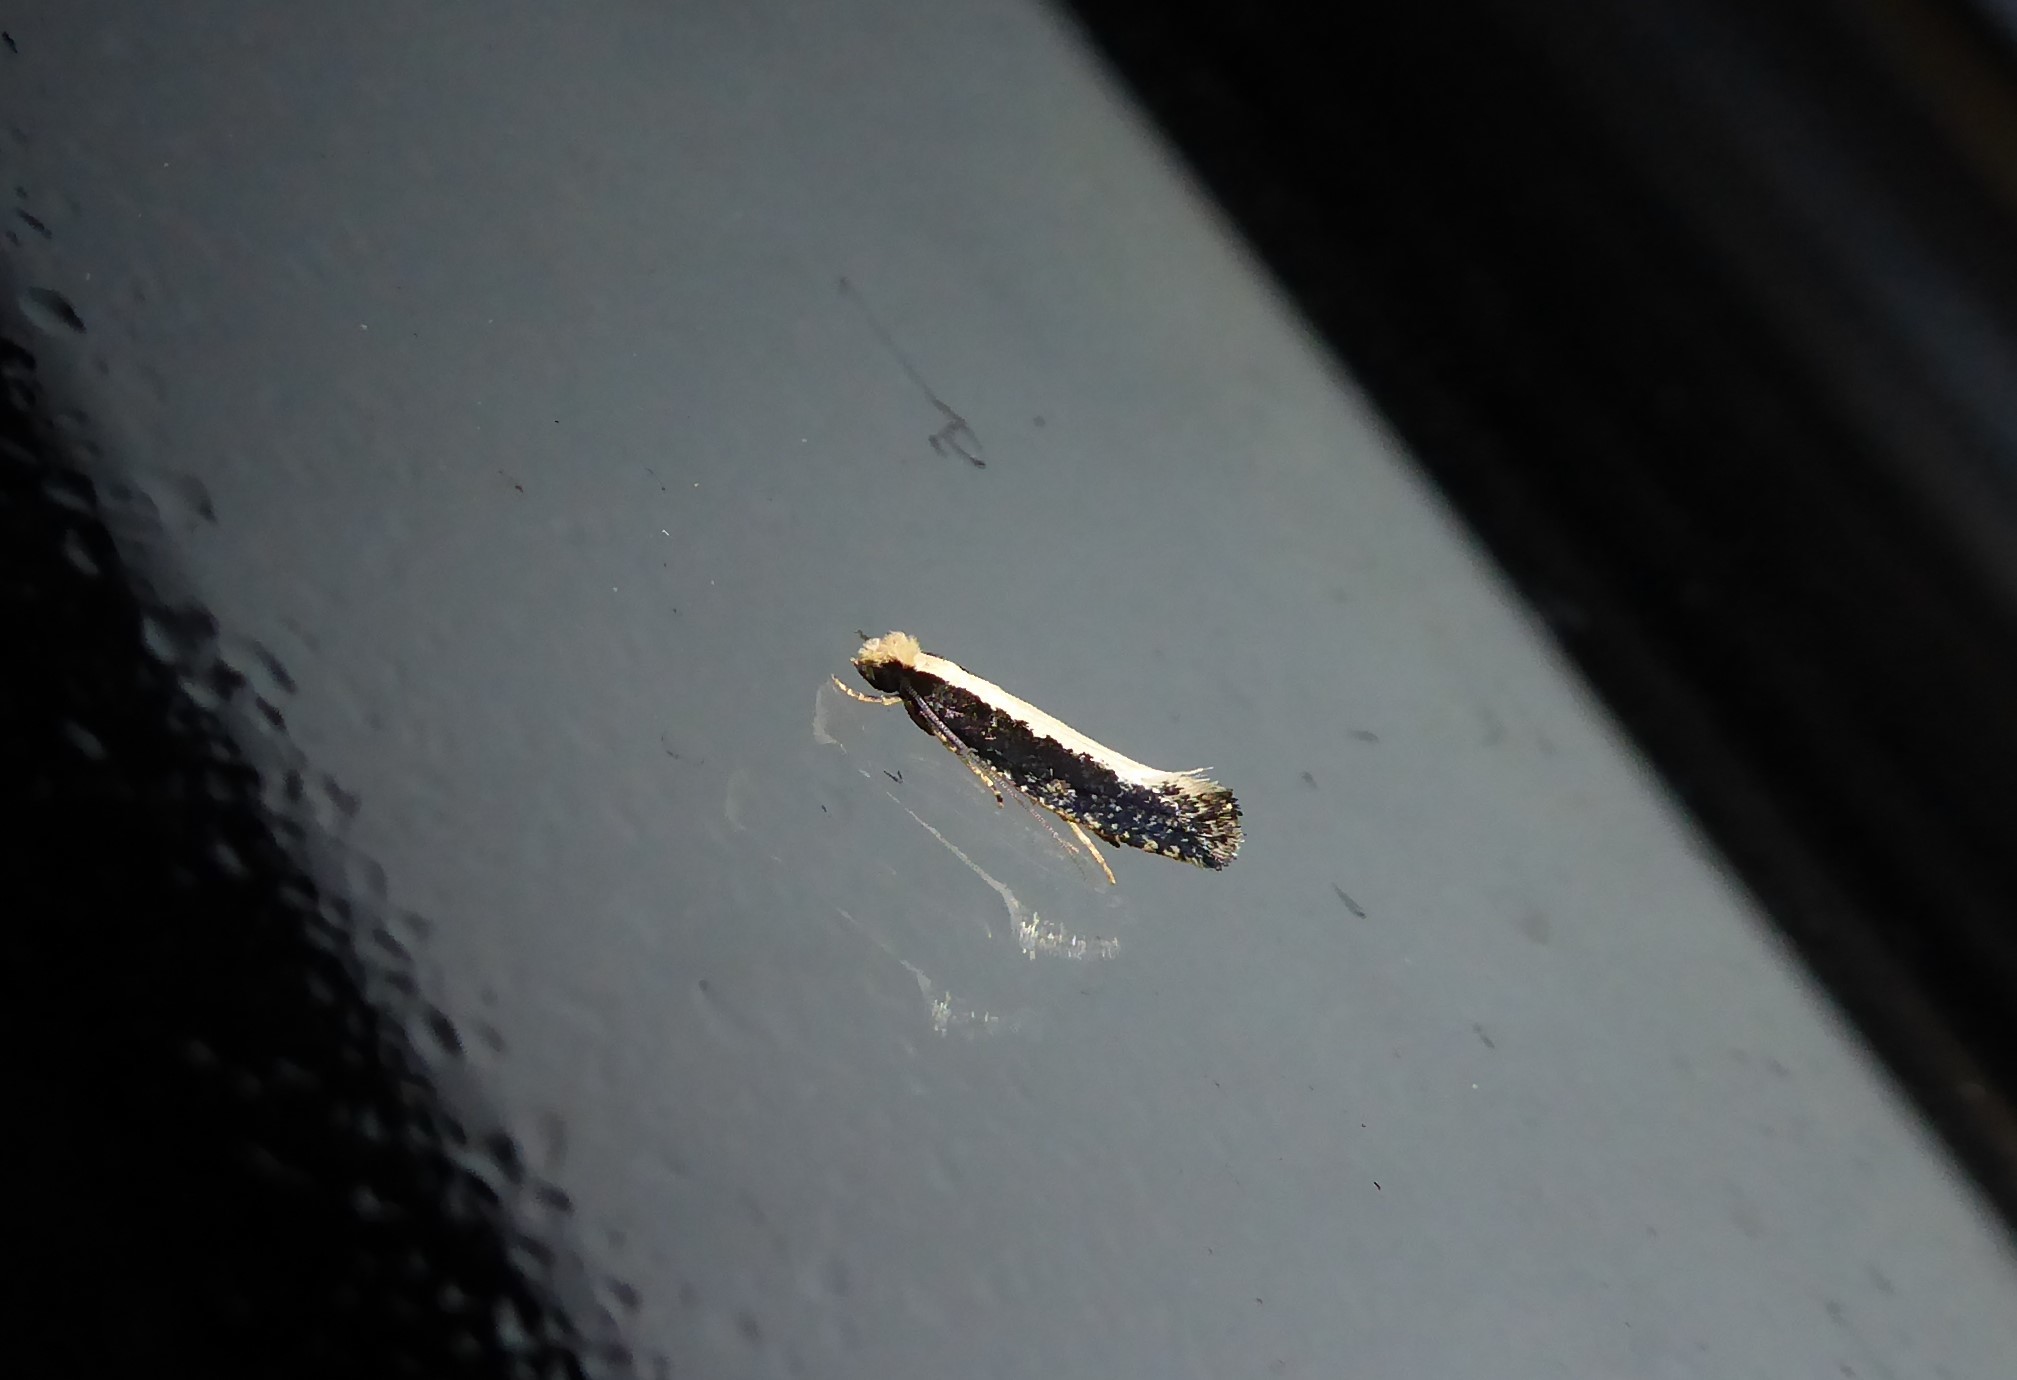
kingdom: Animalia
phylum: Arthropoda
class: Insecta
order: Lepidoptera
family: Tineidae
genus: Monopis
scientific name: Monopis ethelella
